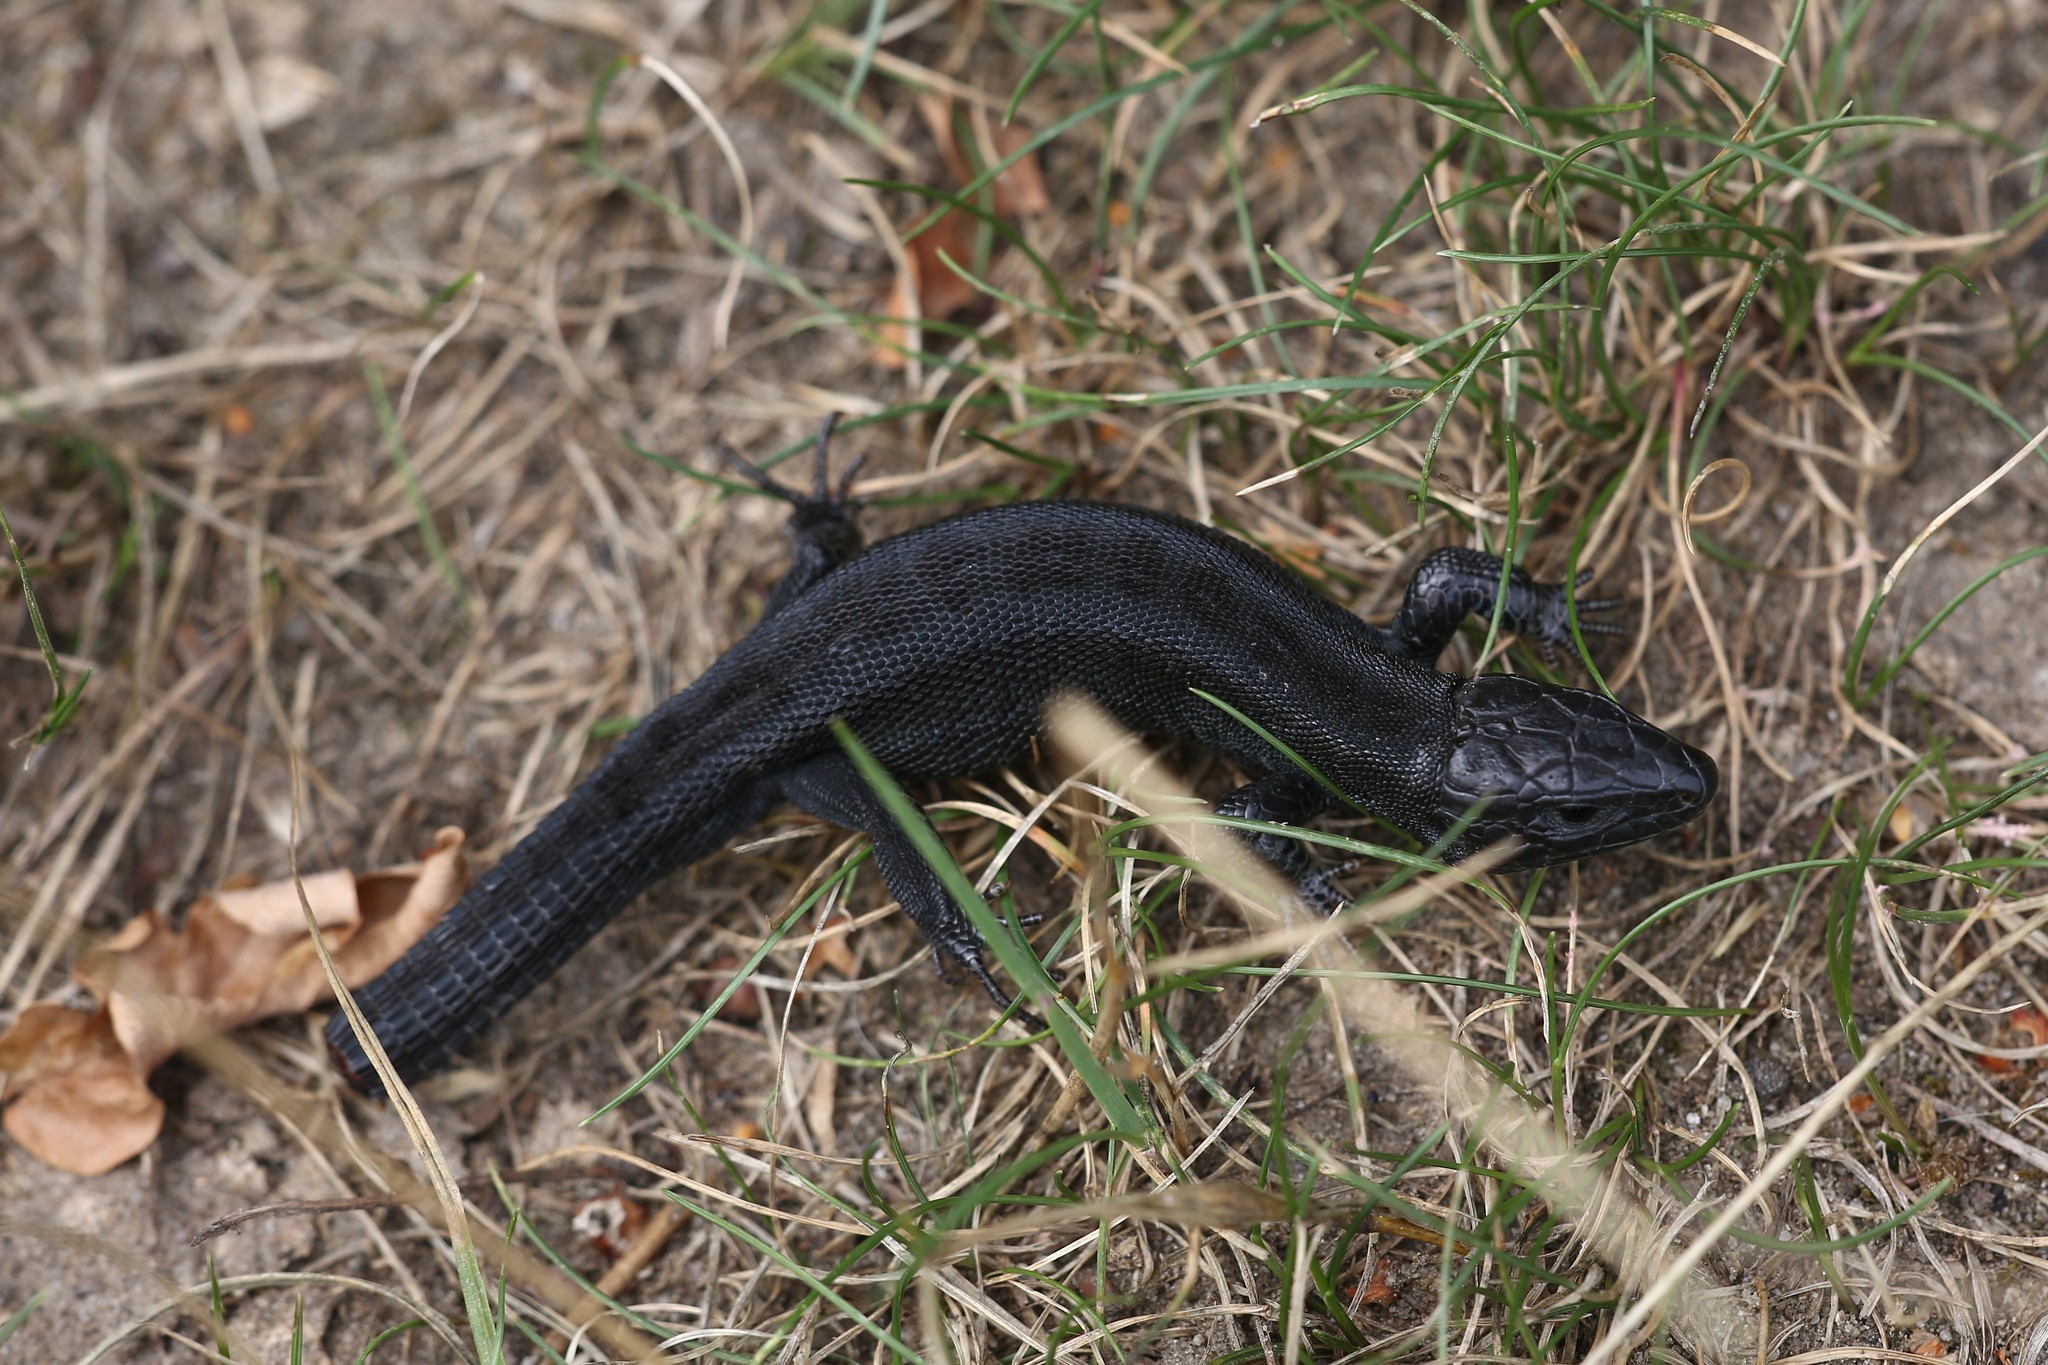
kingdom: Animalia
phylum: Chordata
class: Squamata
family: Lacertidae
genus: Lacerta
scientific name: Lacerta agilis
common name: Sand lizard
